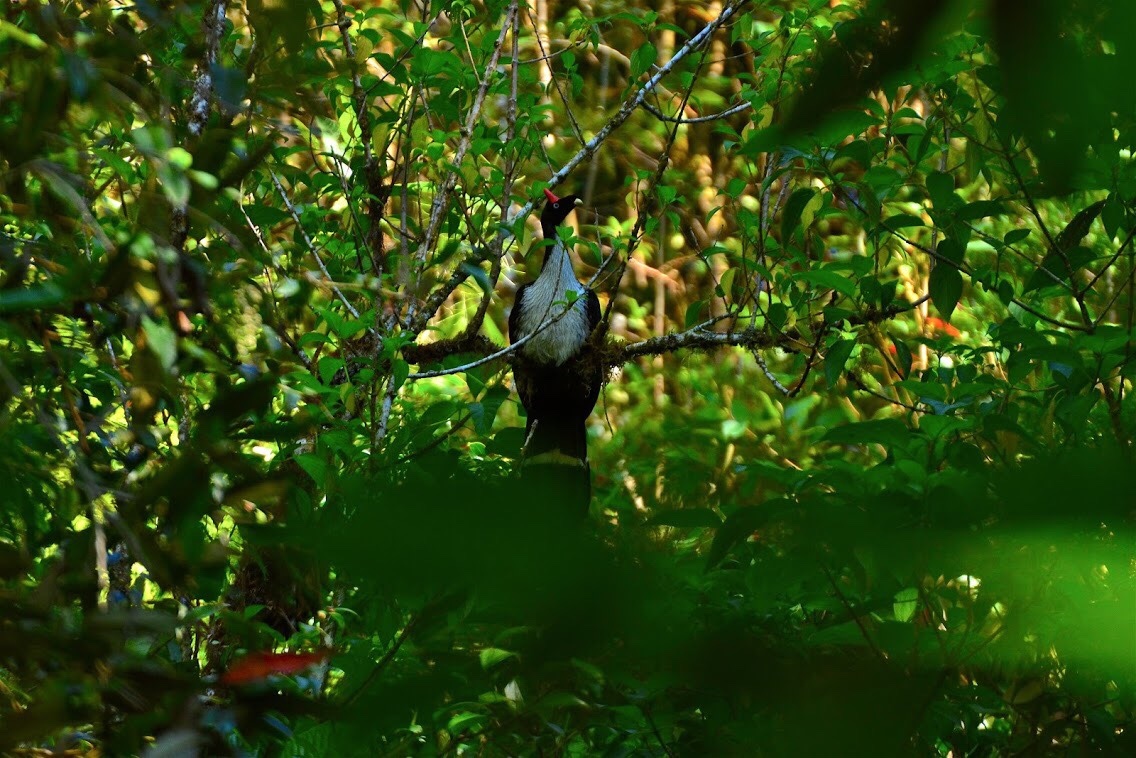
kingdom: Animalia
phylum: Chordata
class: Aves
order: Galliformes
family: Cracidae
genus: Oreophasis
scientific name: Oreophasis derbianus
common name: Horned guan
